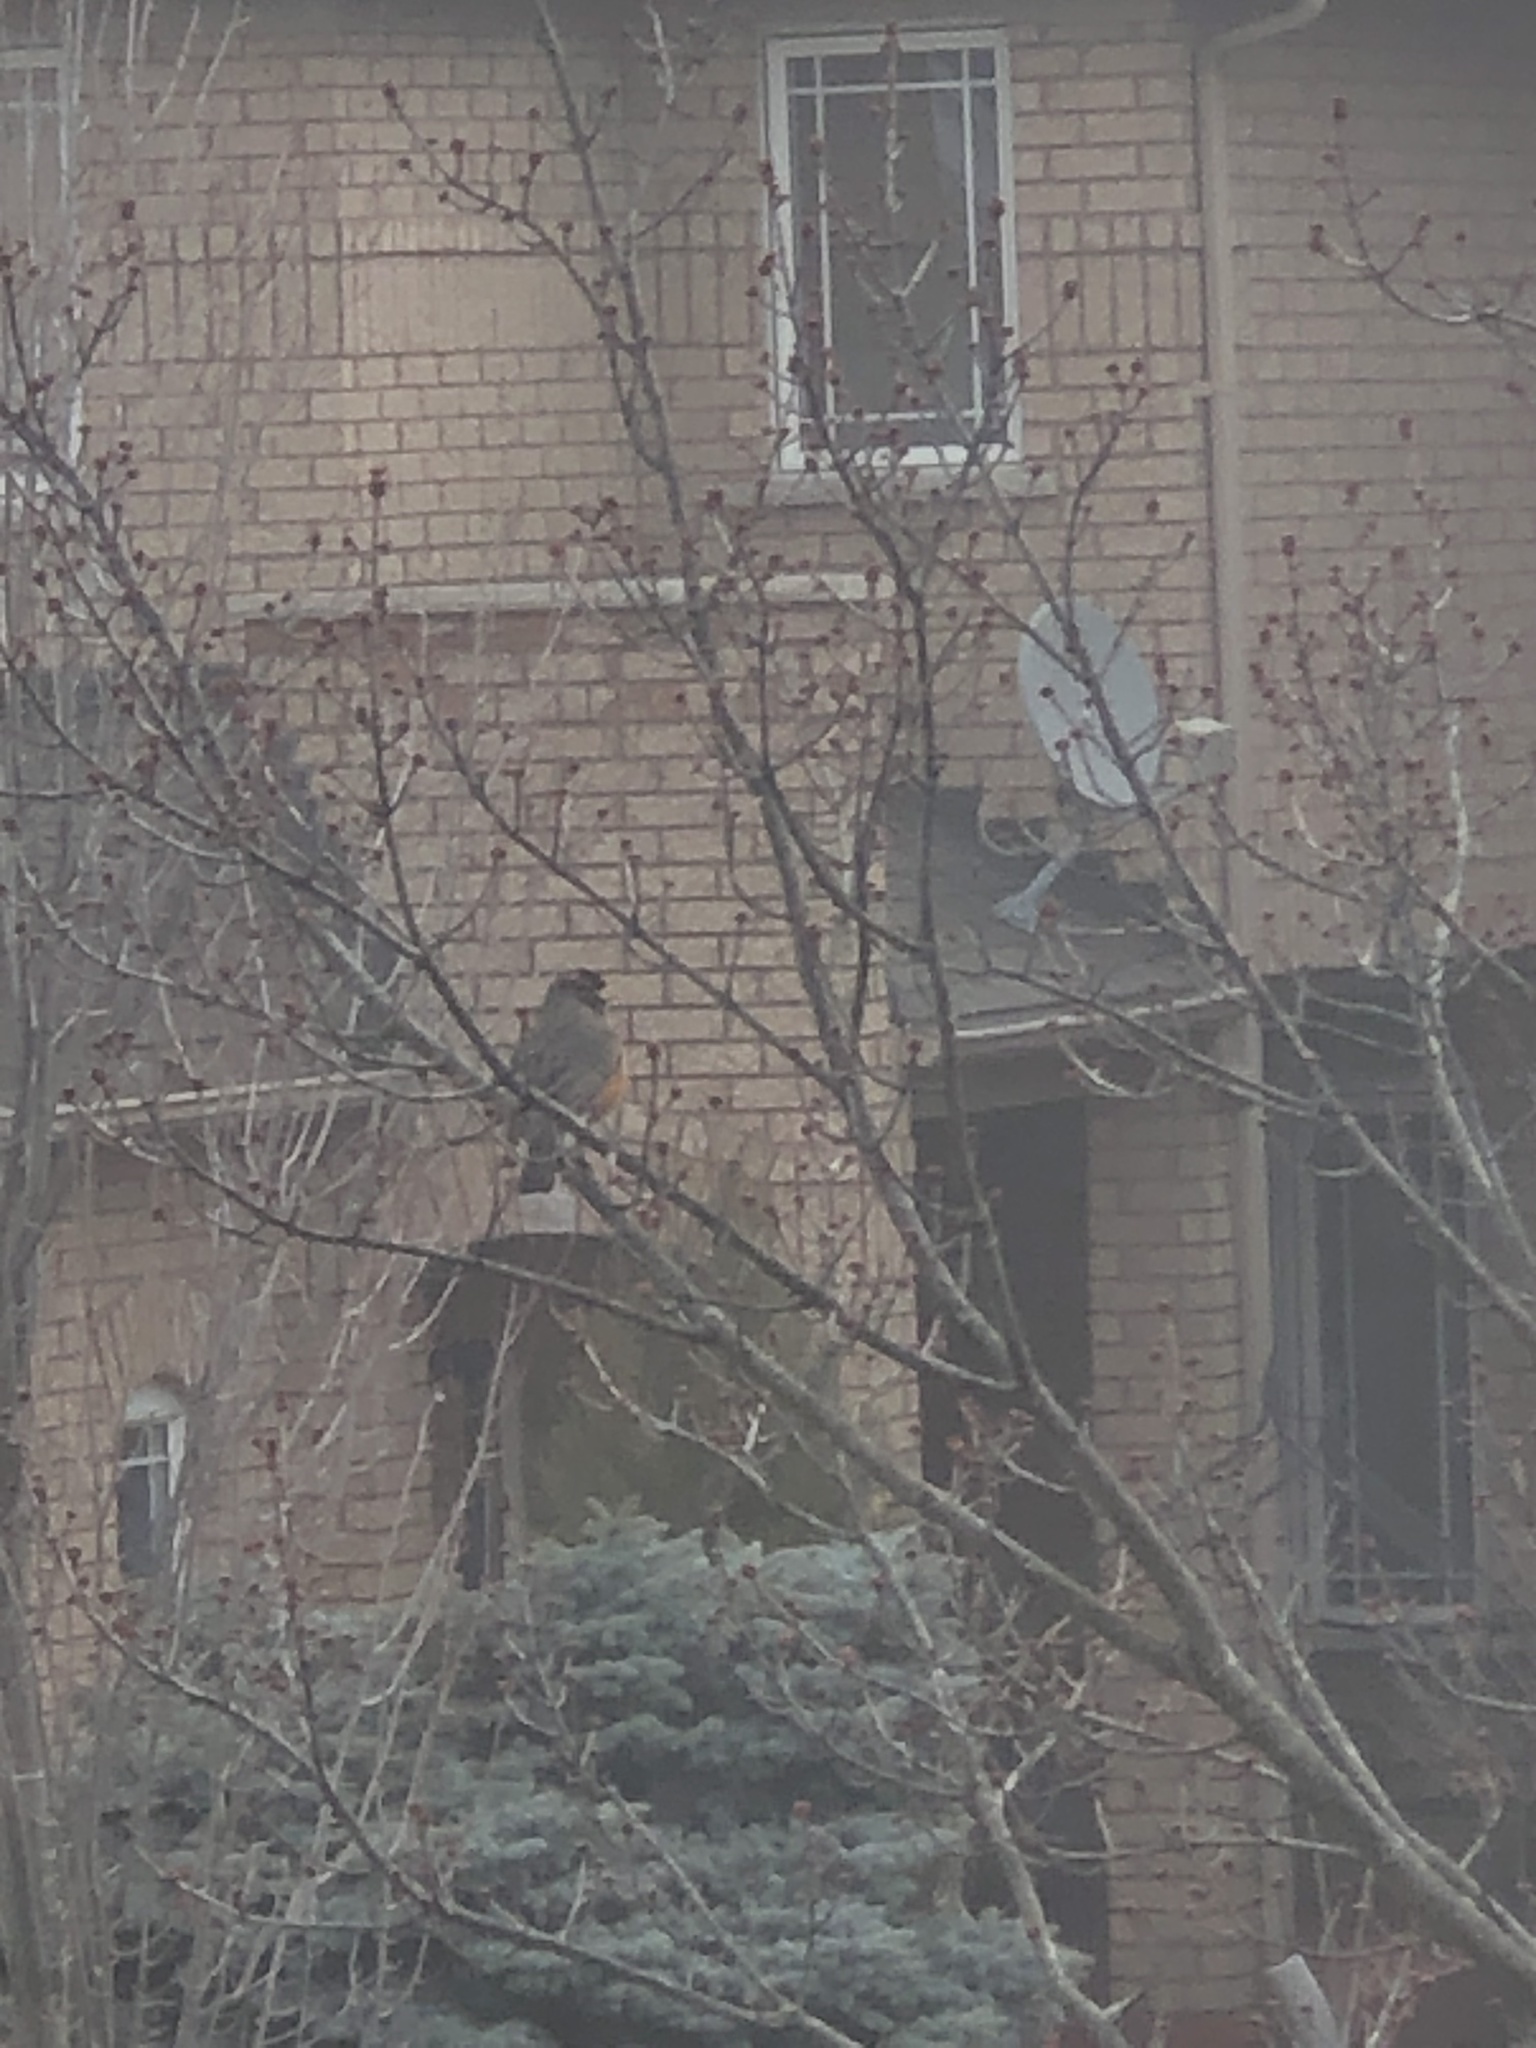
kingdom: Animalia
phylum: Chordata
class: Aves
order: Passeriformes
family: Turdidae
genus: Turdus
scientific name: Turdus migratorius
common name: American robin
